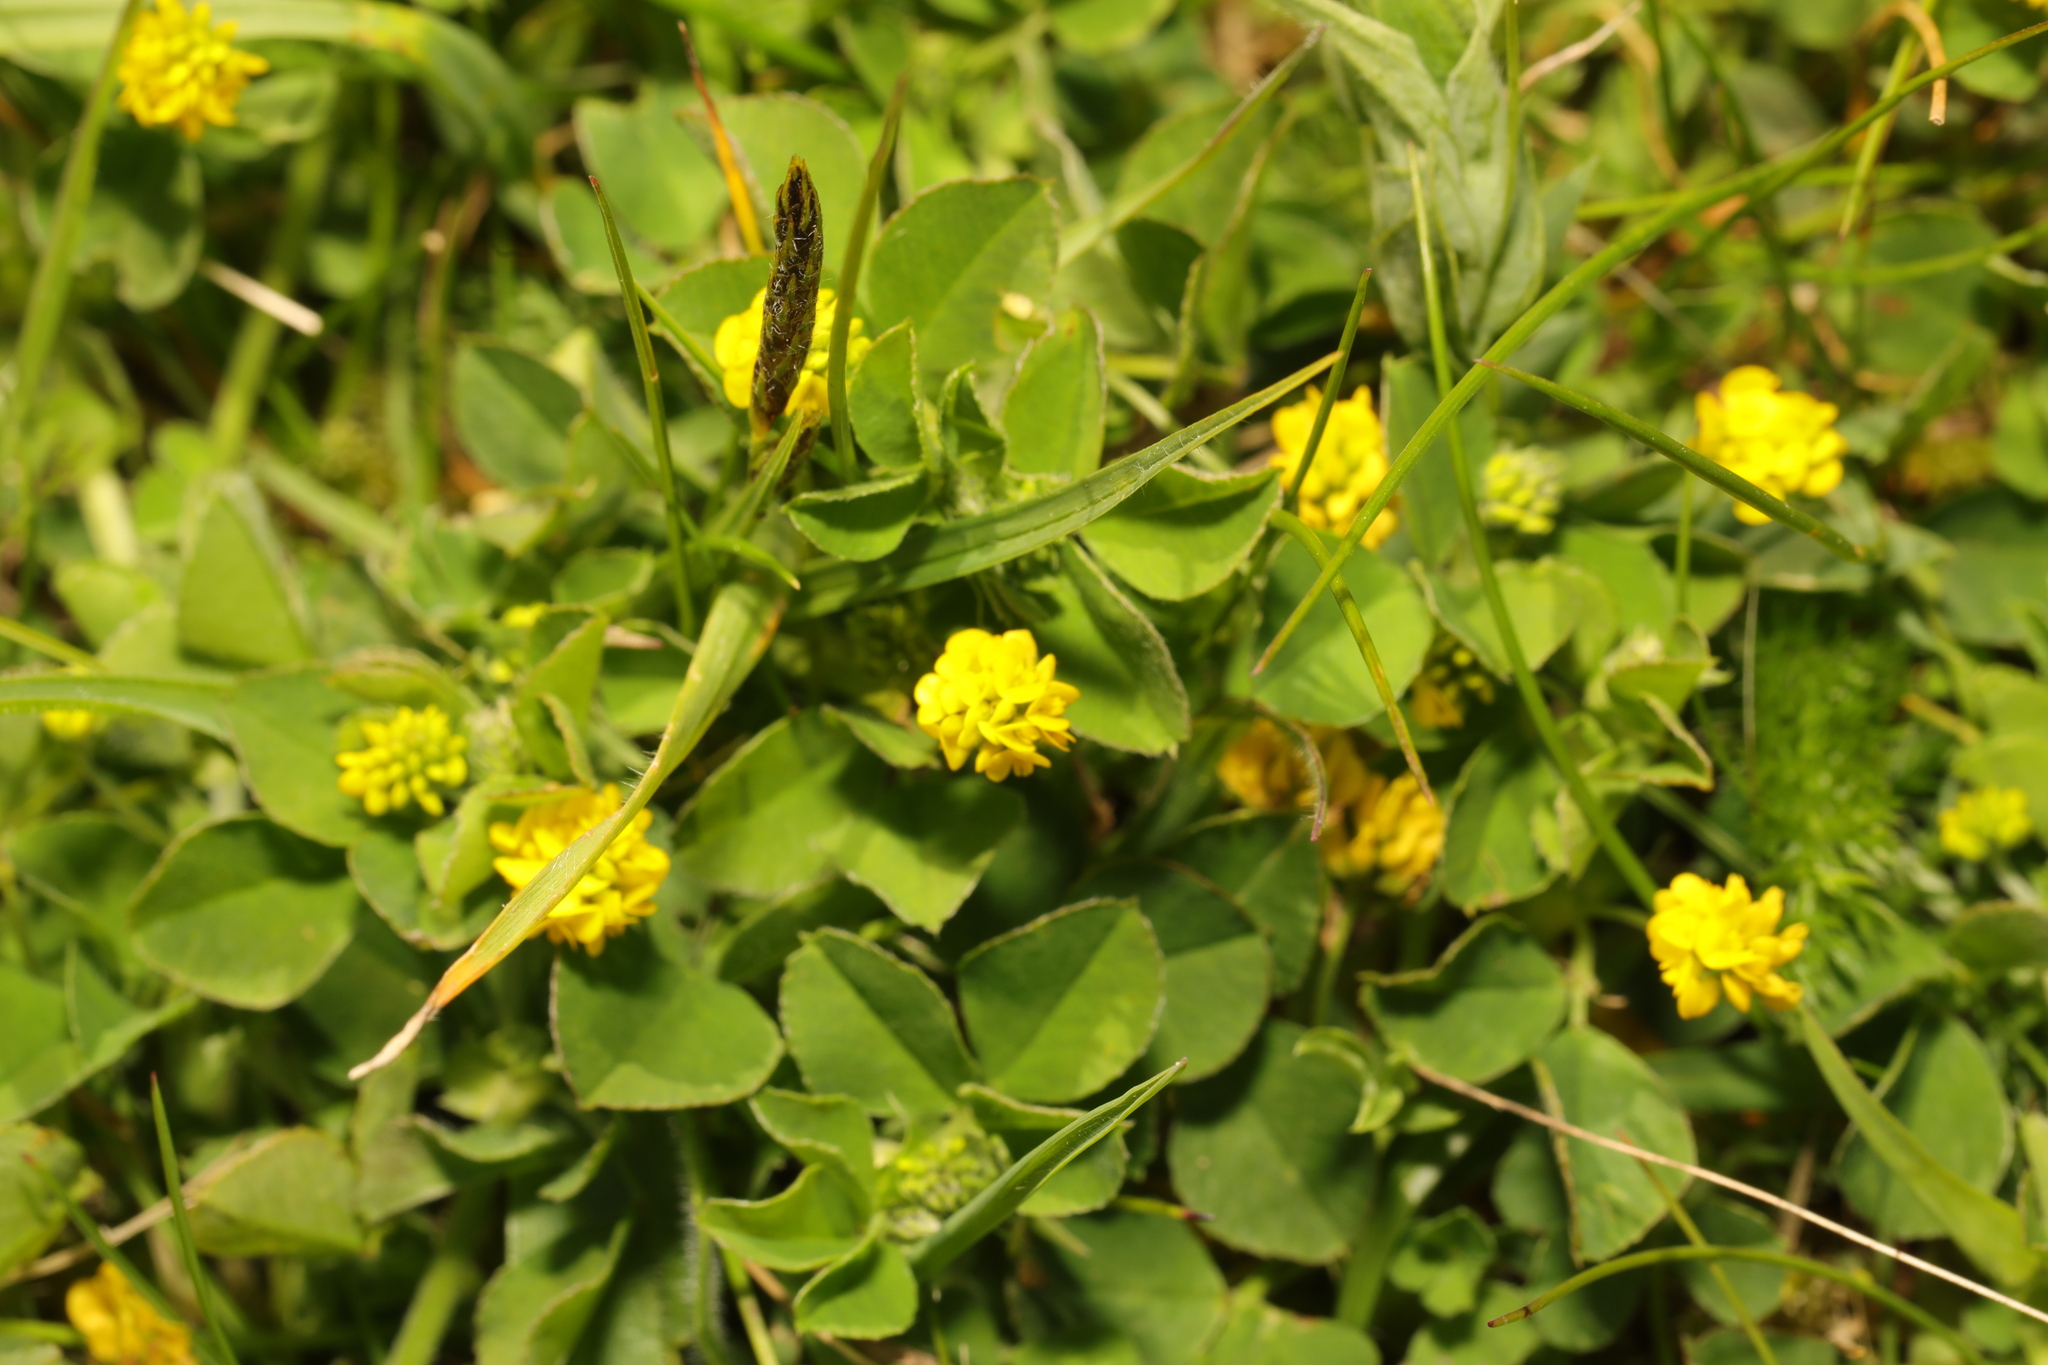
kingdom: Plantae
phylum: Tracheophyta
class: Magnoliopsida
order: Fabales
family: Fabaceae
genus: Medicago
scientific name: Medicago lupulina
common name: Black medick
